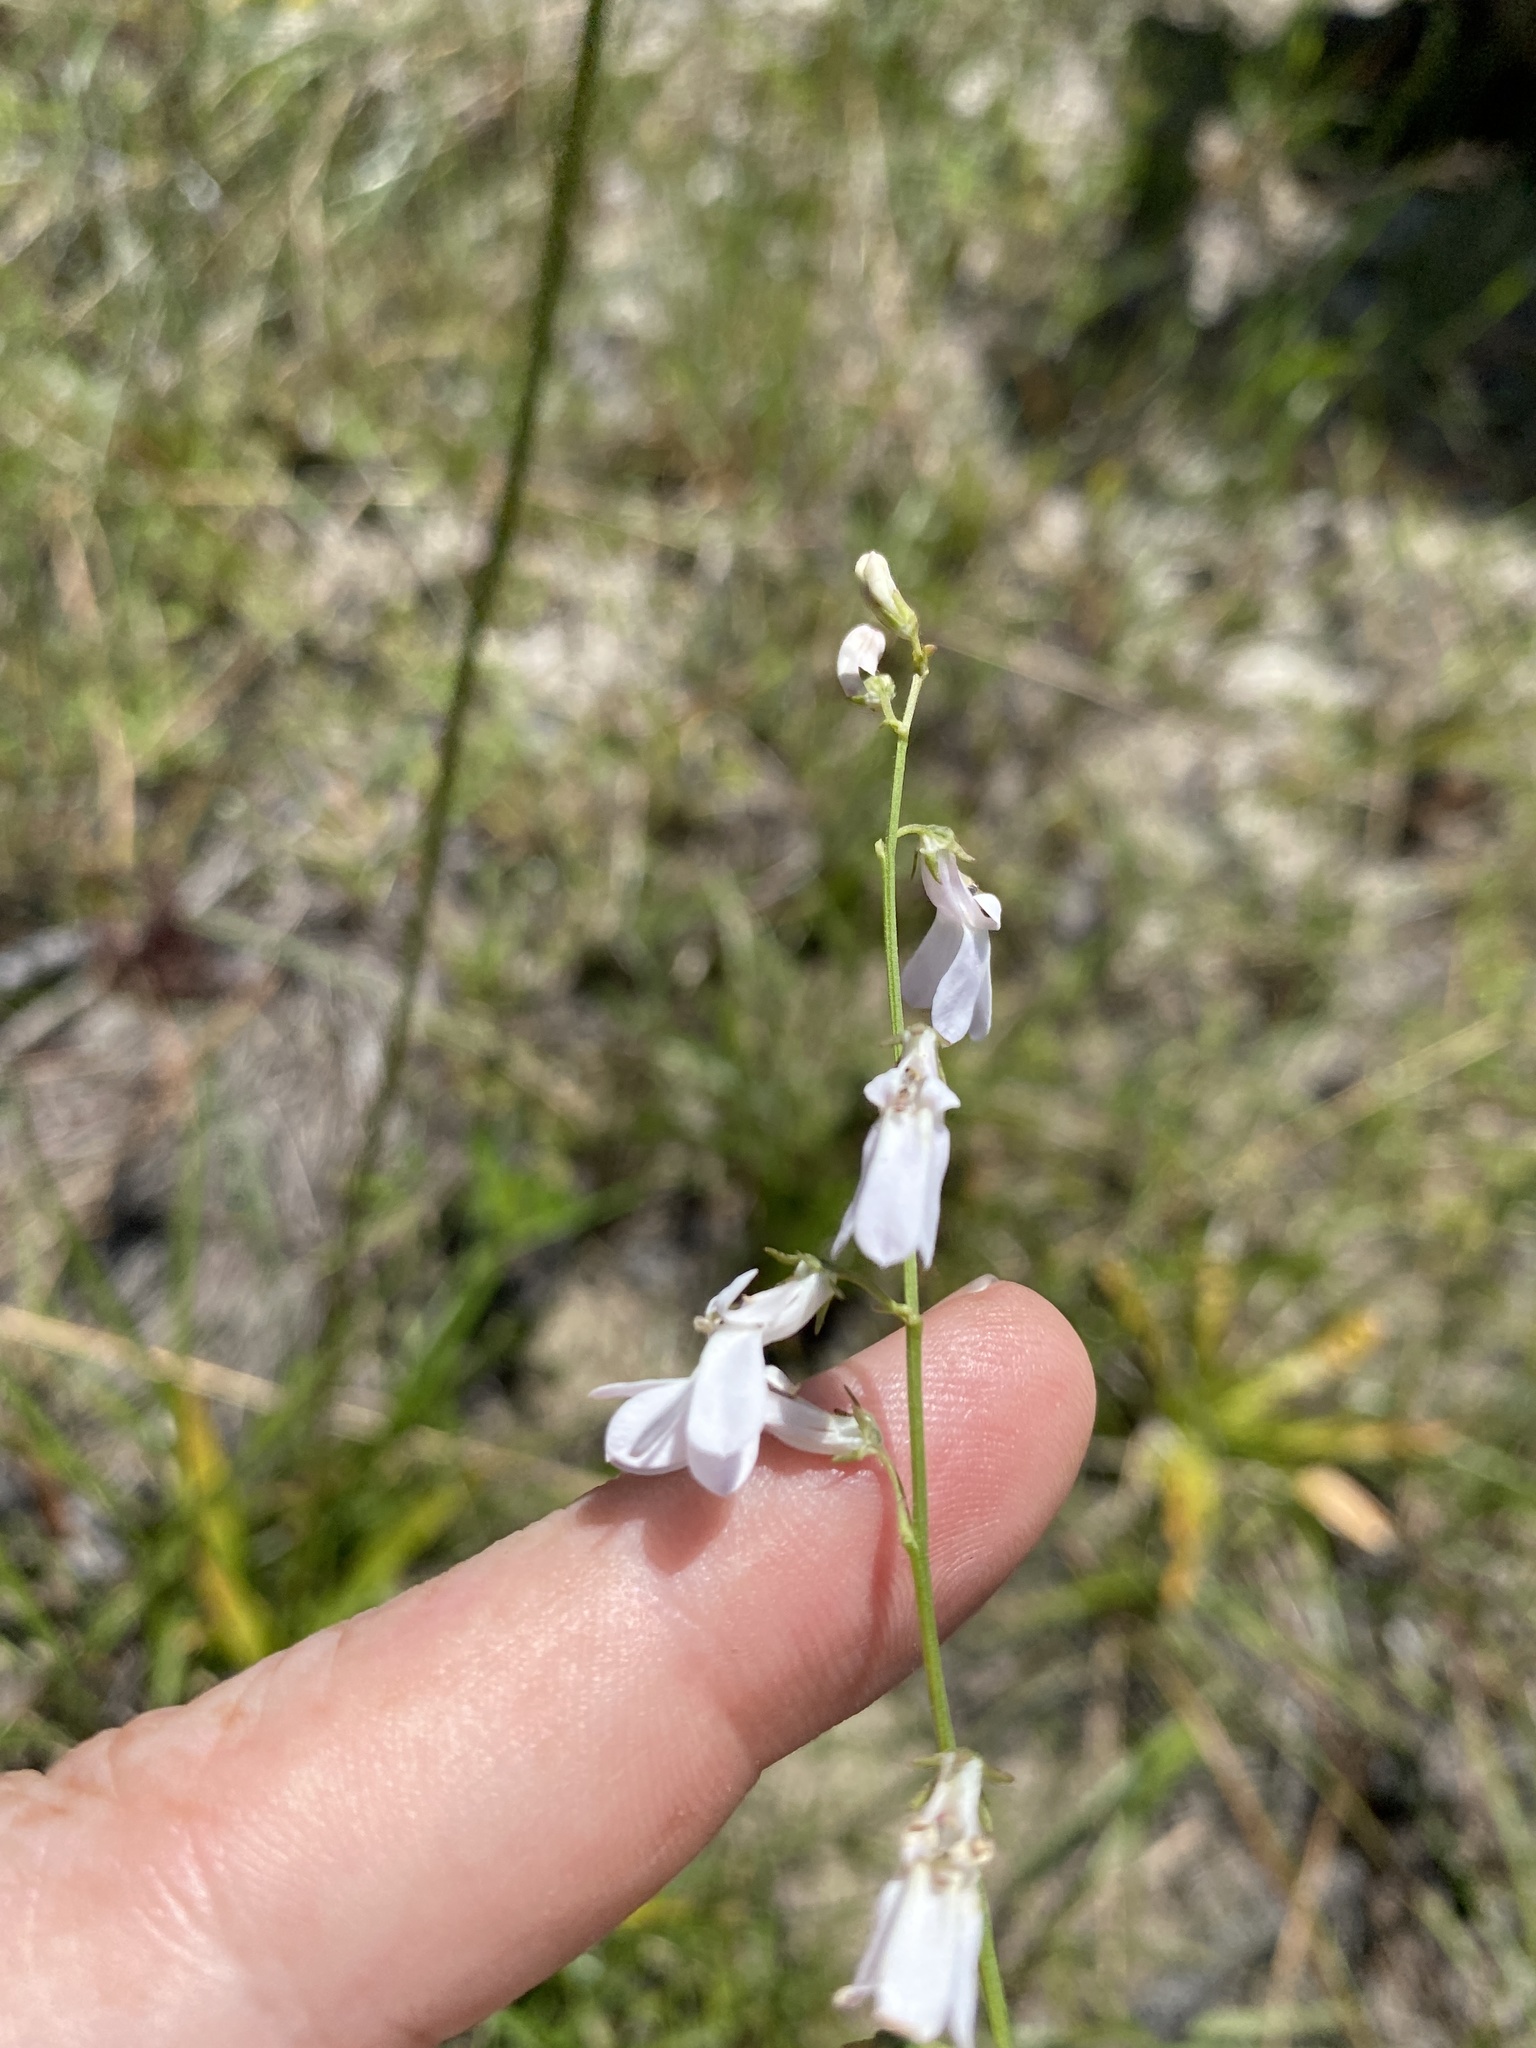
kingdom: Plantae
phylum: Tracheophyta
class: Magnoliopsida
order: Asterales
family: Campanulaceae
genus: Lobelia
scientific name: Lobelia paludosa
